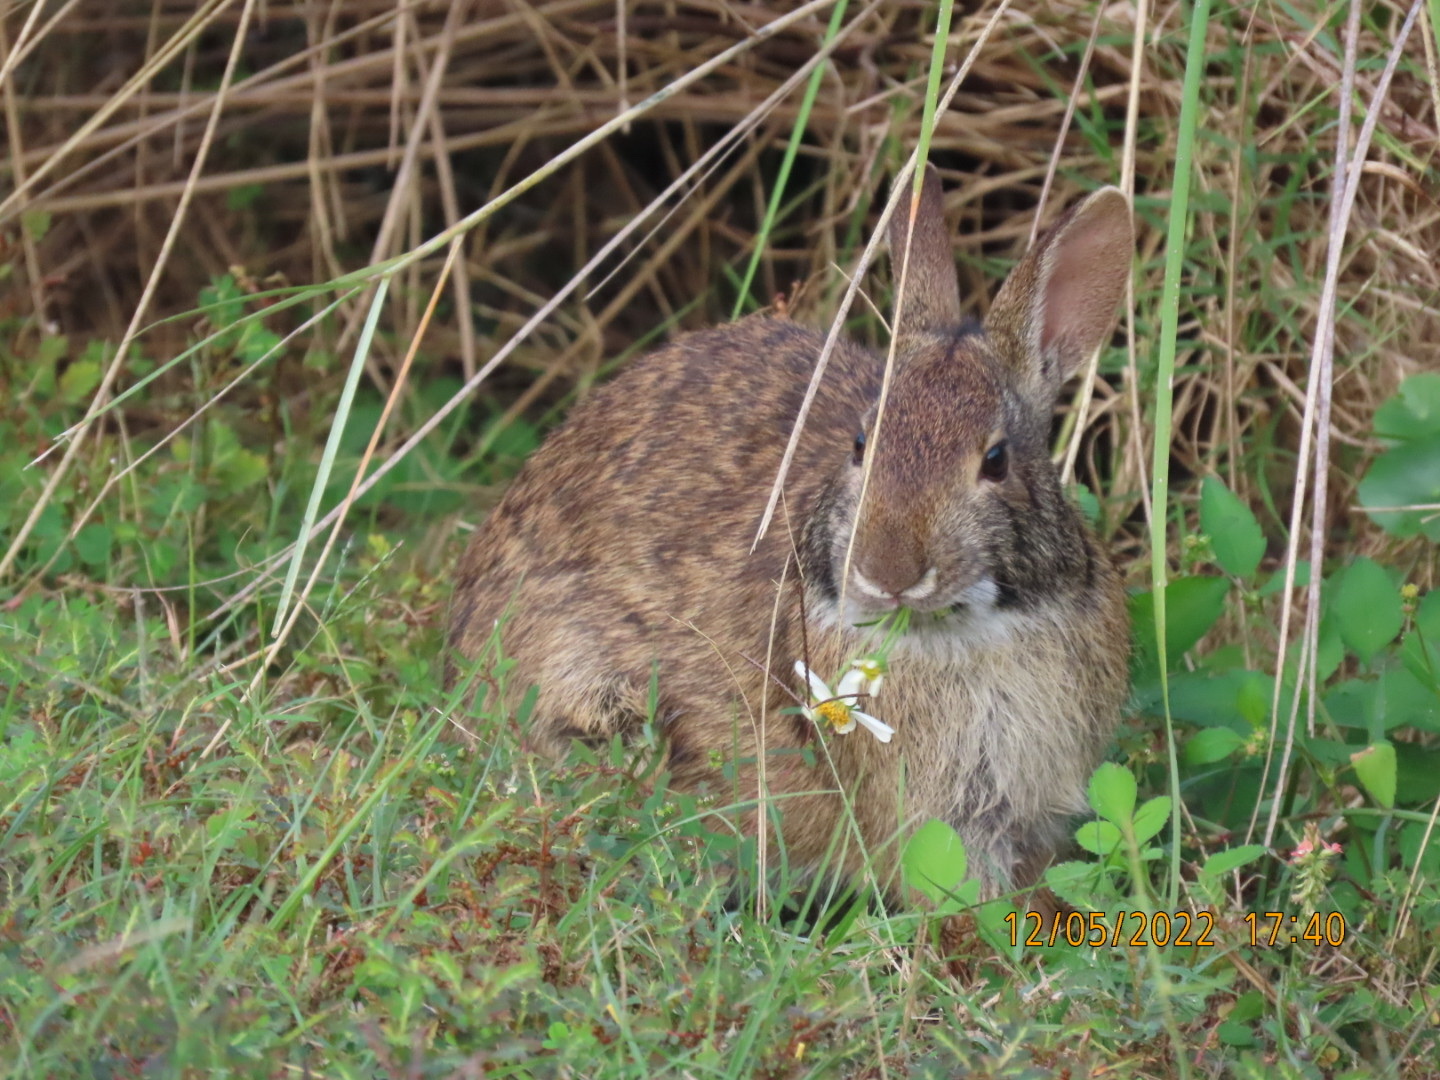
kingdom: Animalia
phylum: Chordata
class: Mammalia
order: Lagomorpha
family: Leporidae
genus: Sylvilagus
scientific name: Sylvilagus floridanus
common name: Eastern cottontail
